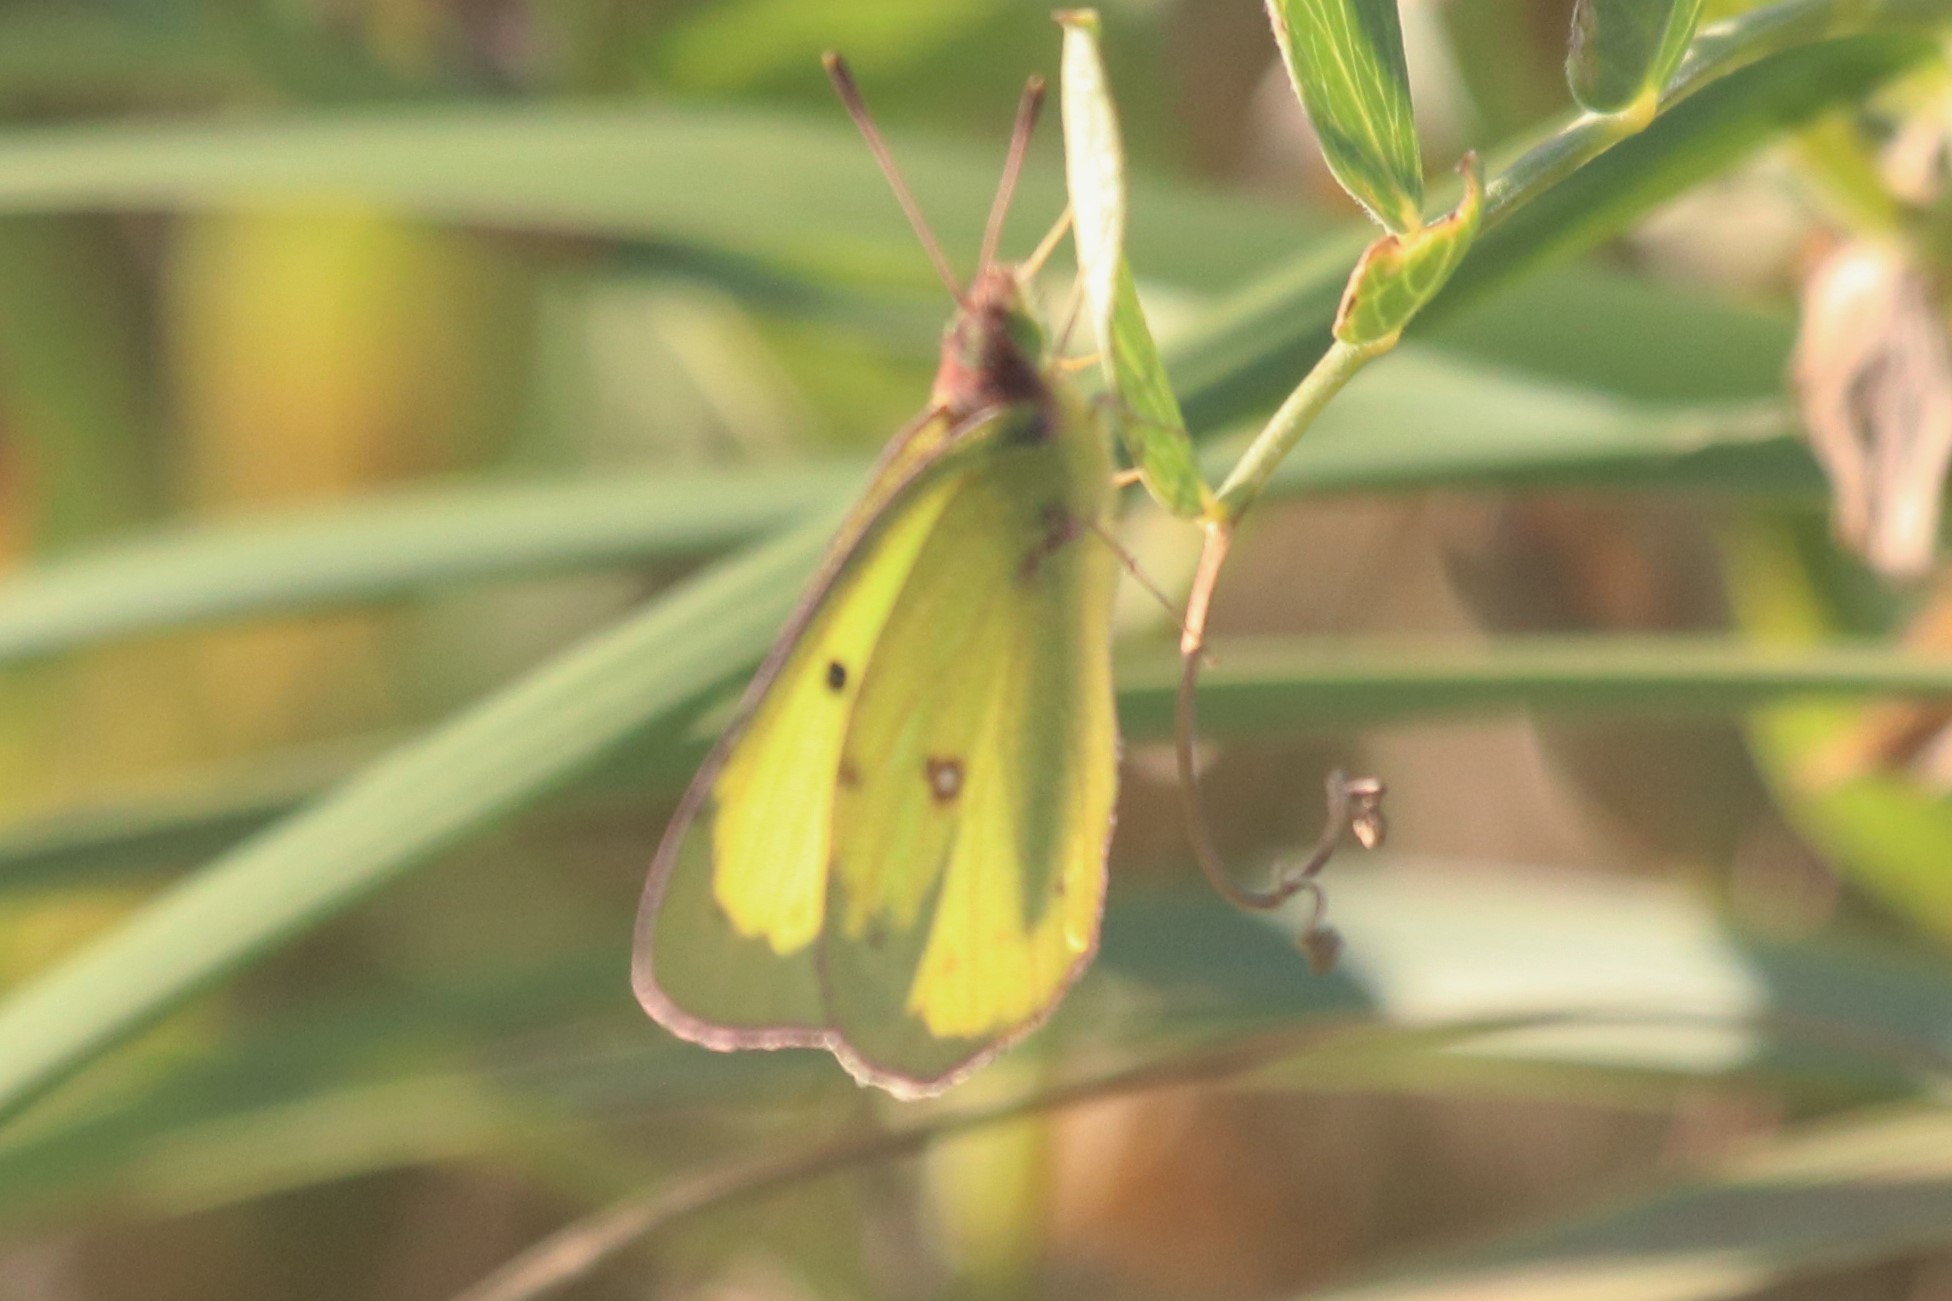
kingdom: Animalia
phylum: Arthropoda
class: Insecta
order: Lepidoptera
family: Pieridae
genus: Colias
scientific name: Colias philodice
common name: Clouded sulphur
